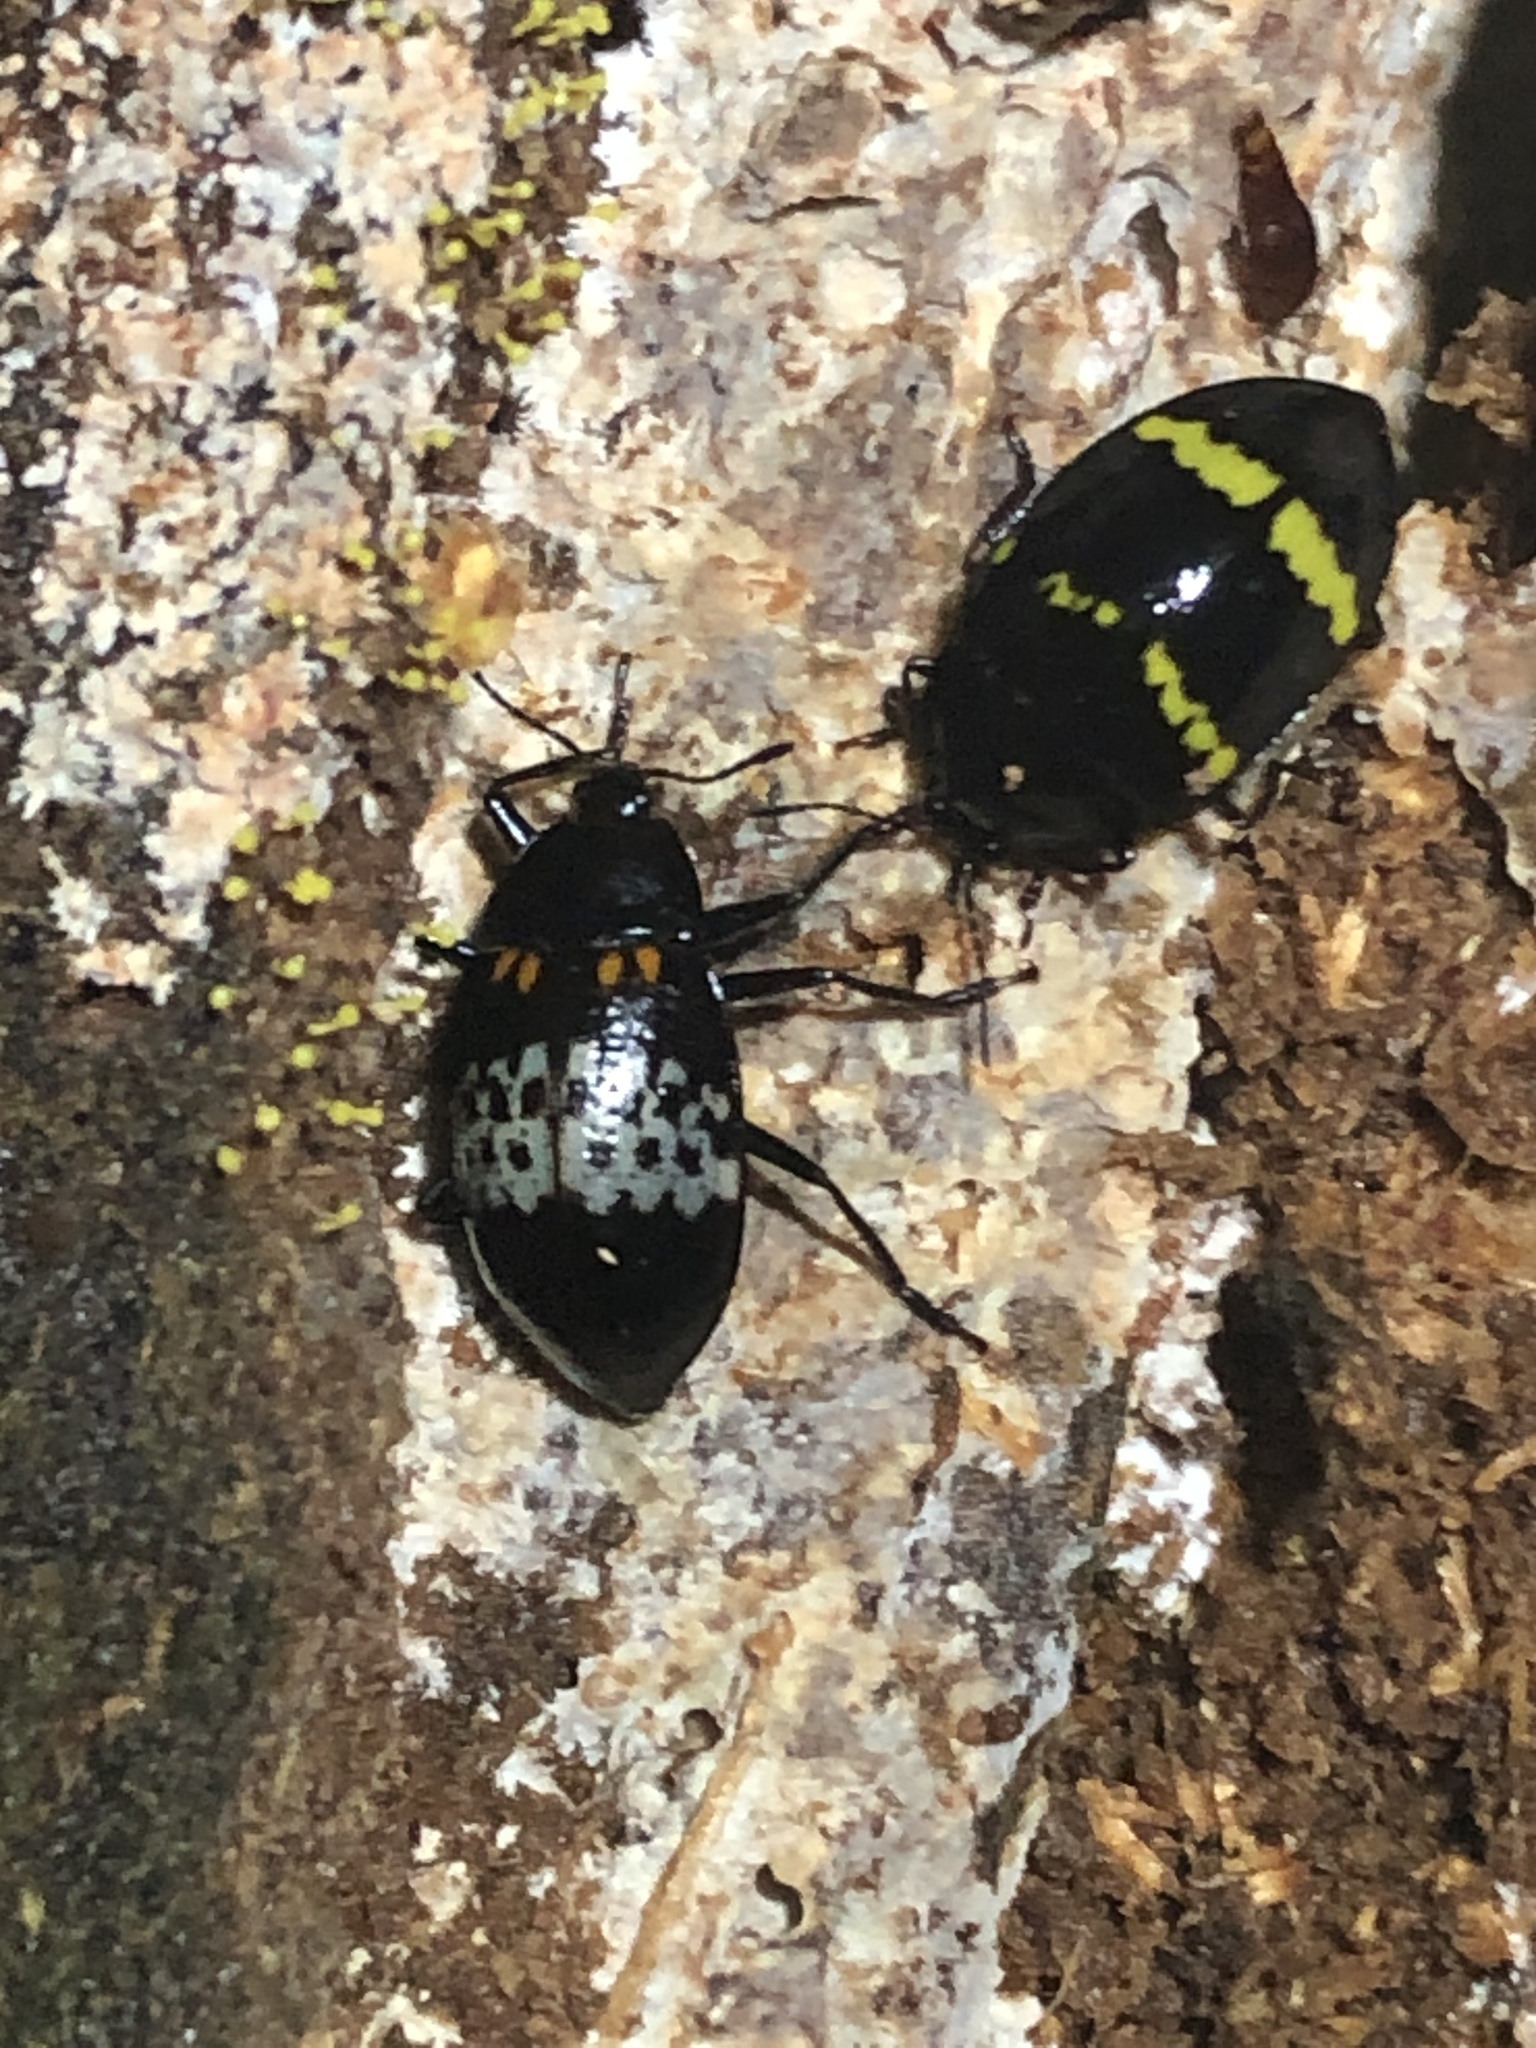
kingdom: Animalia
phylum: Arthropoda
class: Insecta
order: Coleoptera
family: Erotylidae
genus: Prepopharus
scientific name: Prepopharus
